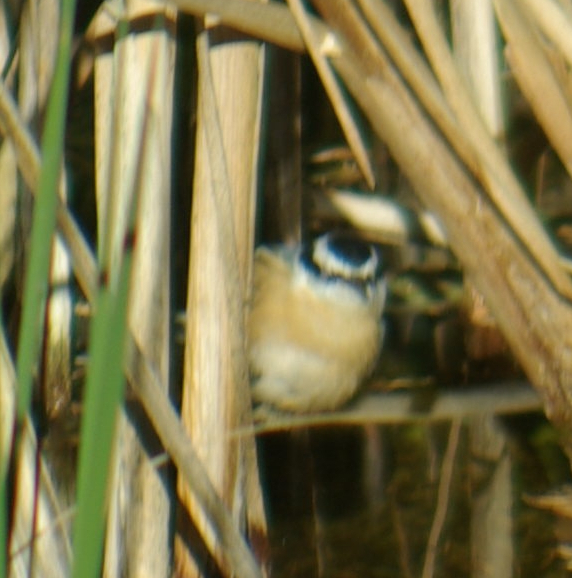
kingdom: Animalia
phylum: Chordata
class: Aves
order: Passeriformes
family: Sittidae
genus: Sitta
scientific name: Sitta canadensis
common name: Red-breasted nuthatch
